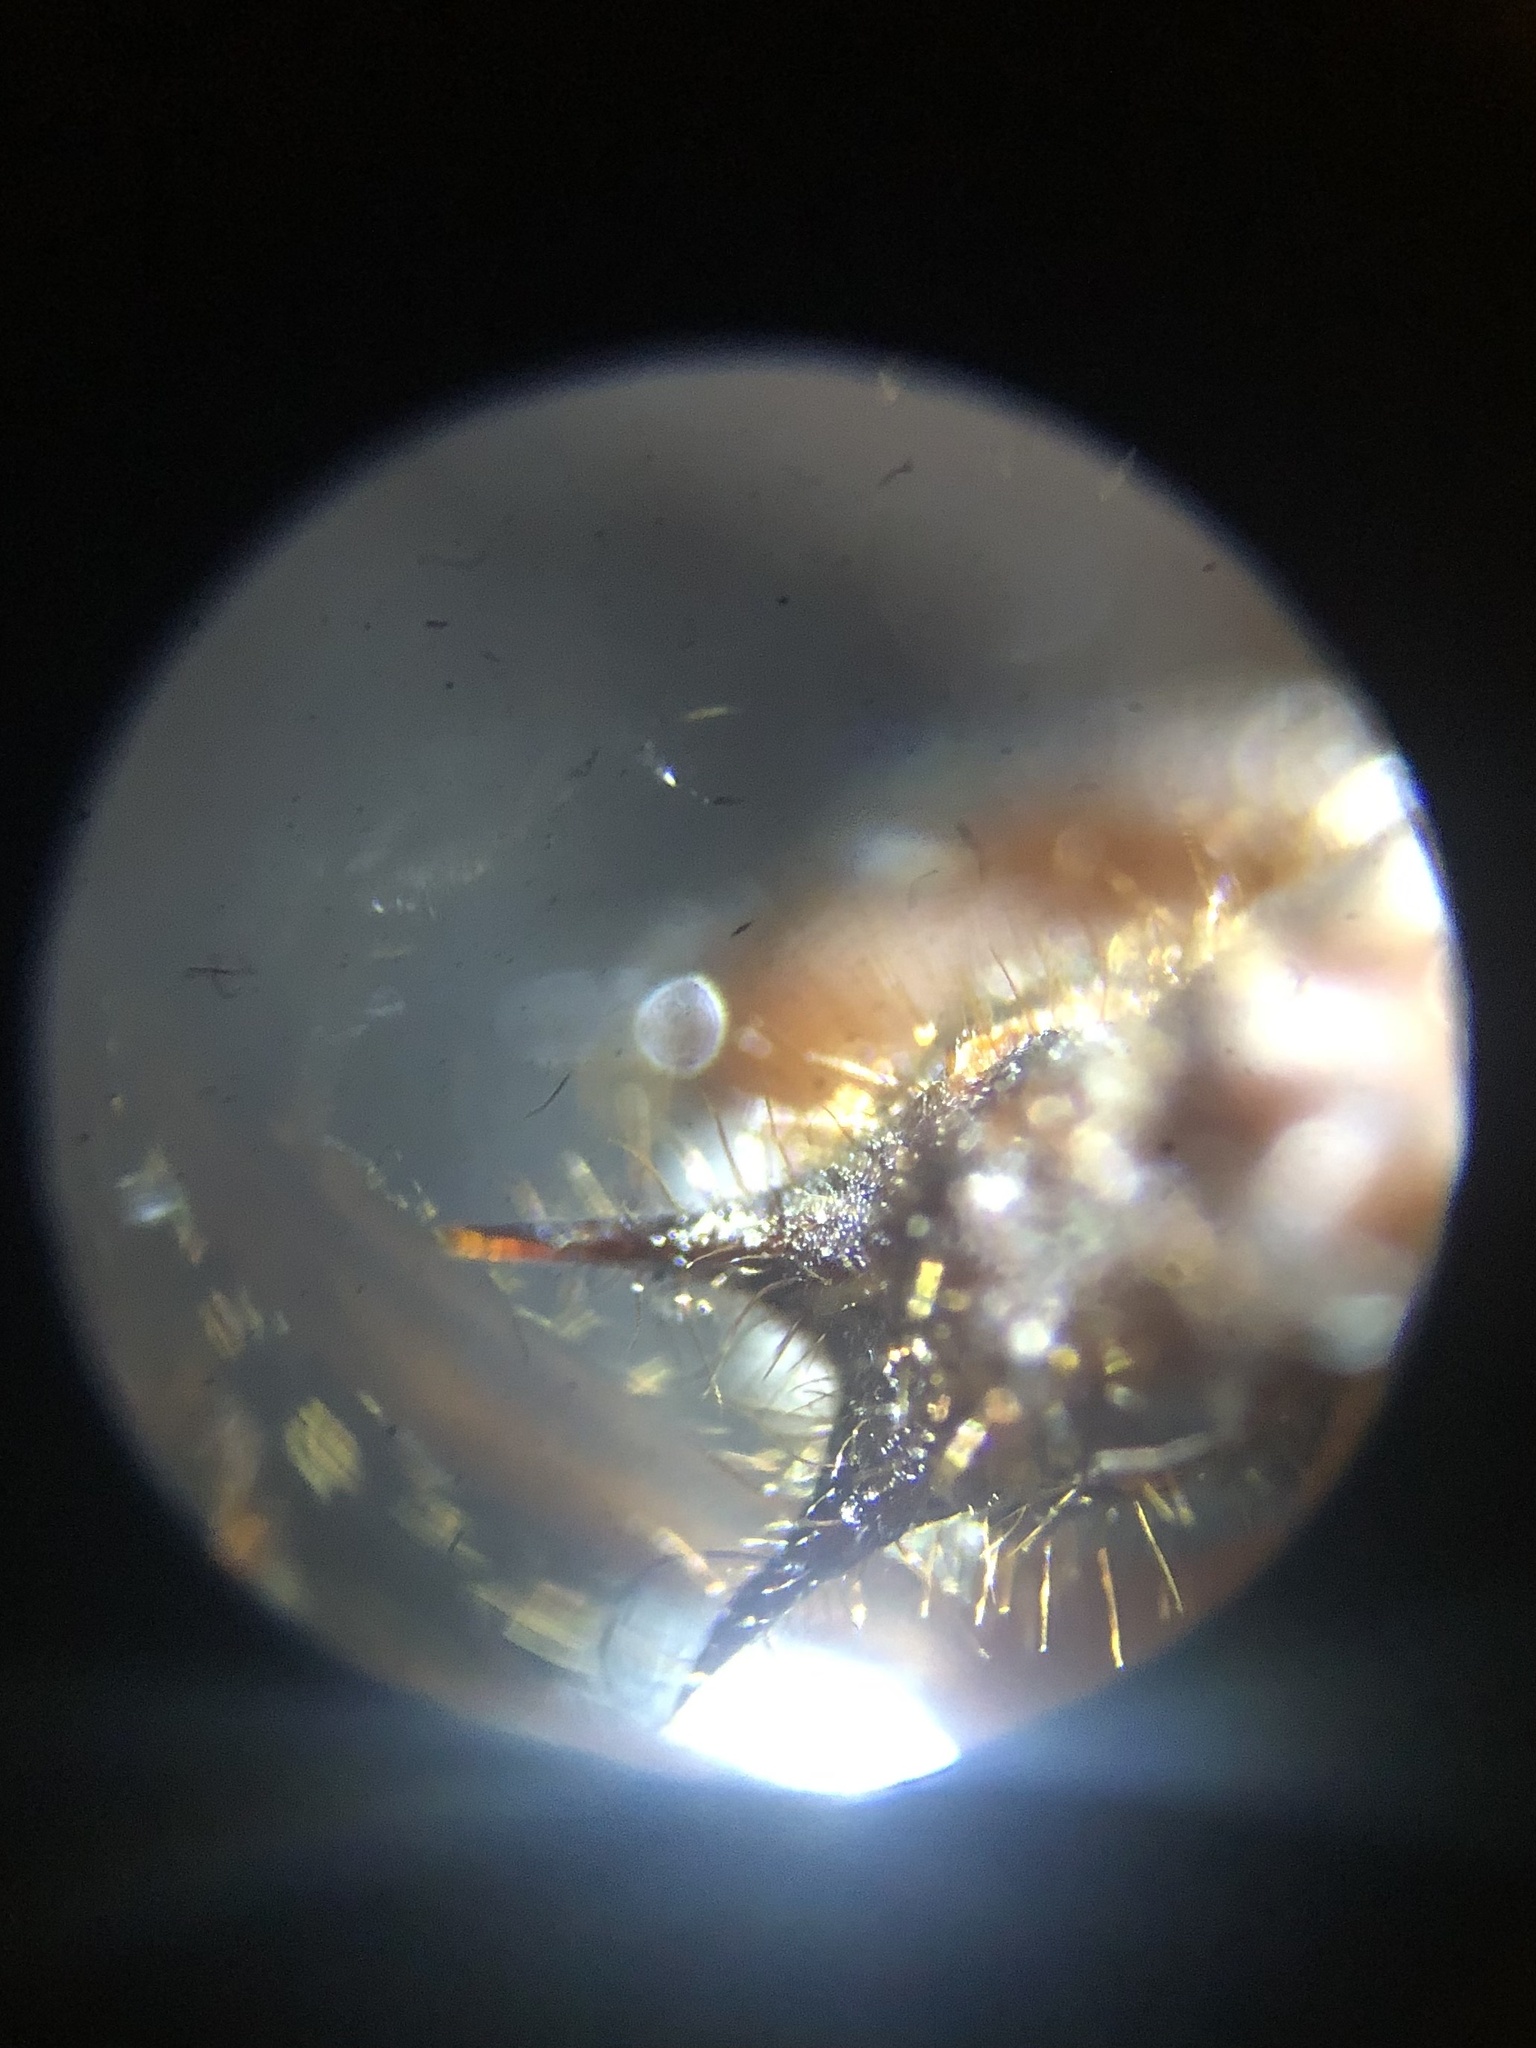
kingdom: Animalia
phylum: Arthropoda
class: Insecta
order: Hymenoptera
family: Formicidae
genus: Atta
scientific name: Atta mexicana
